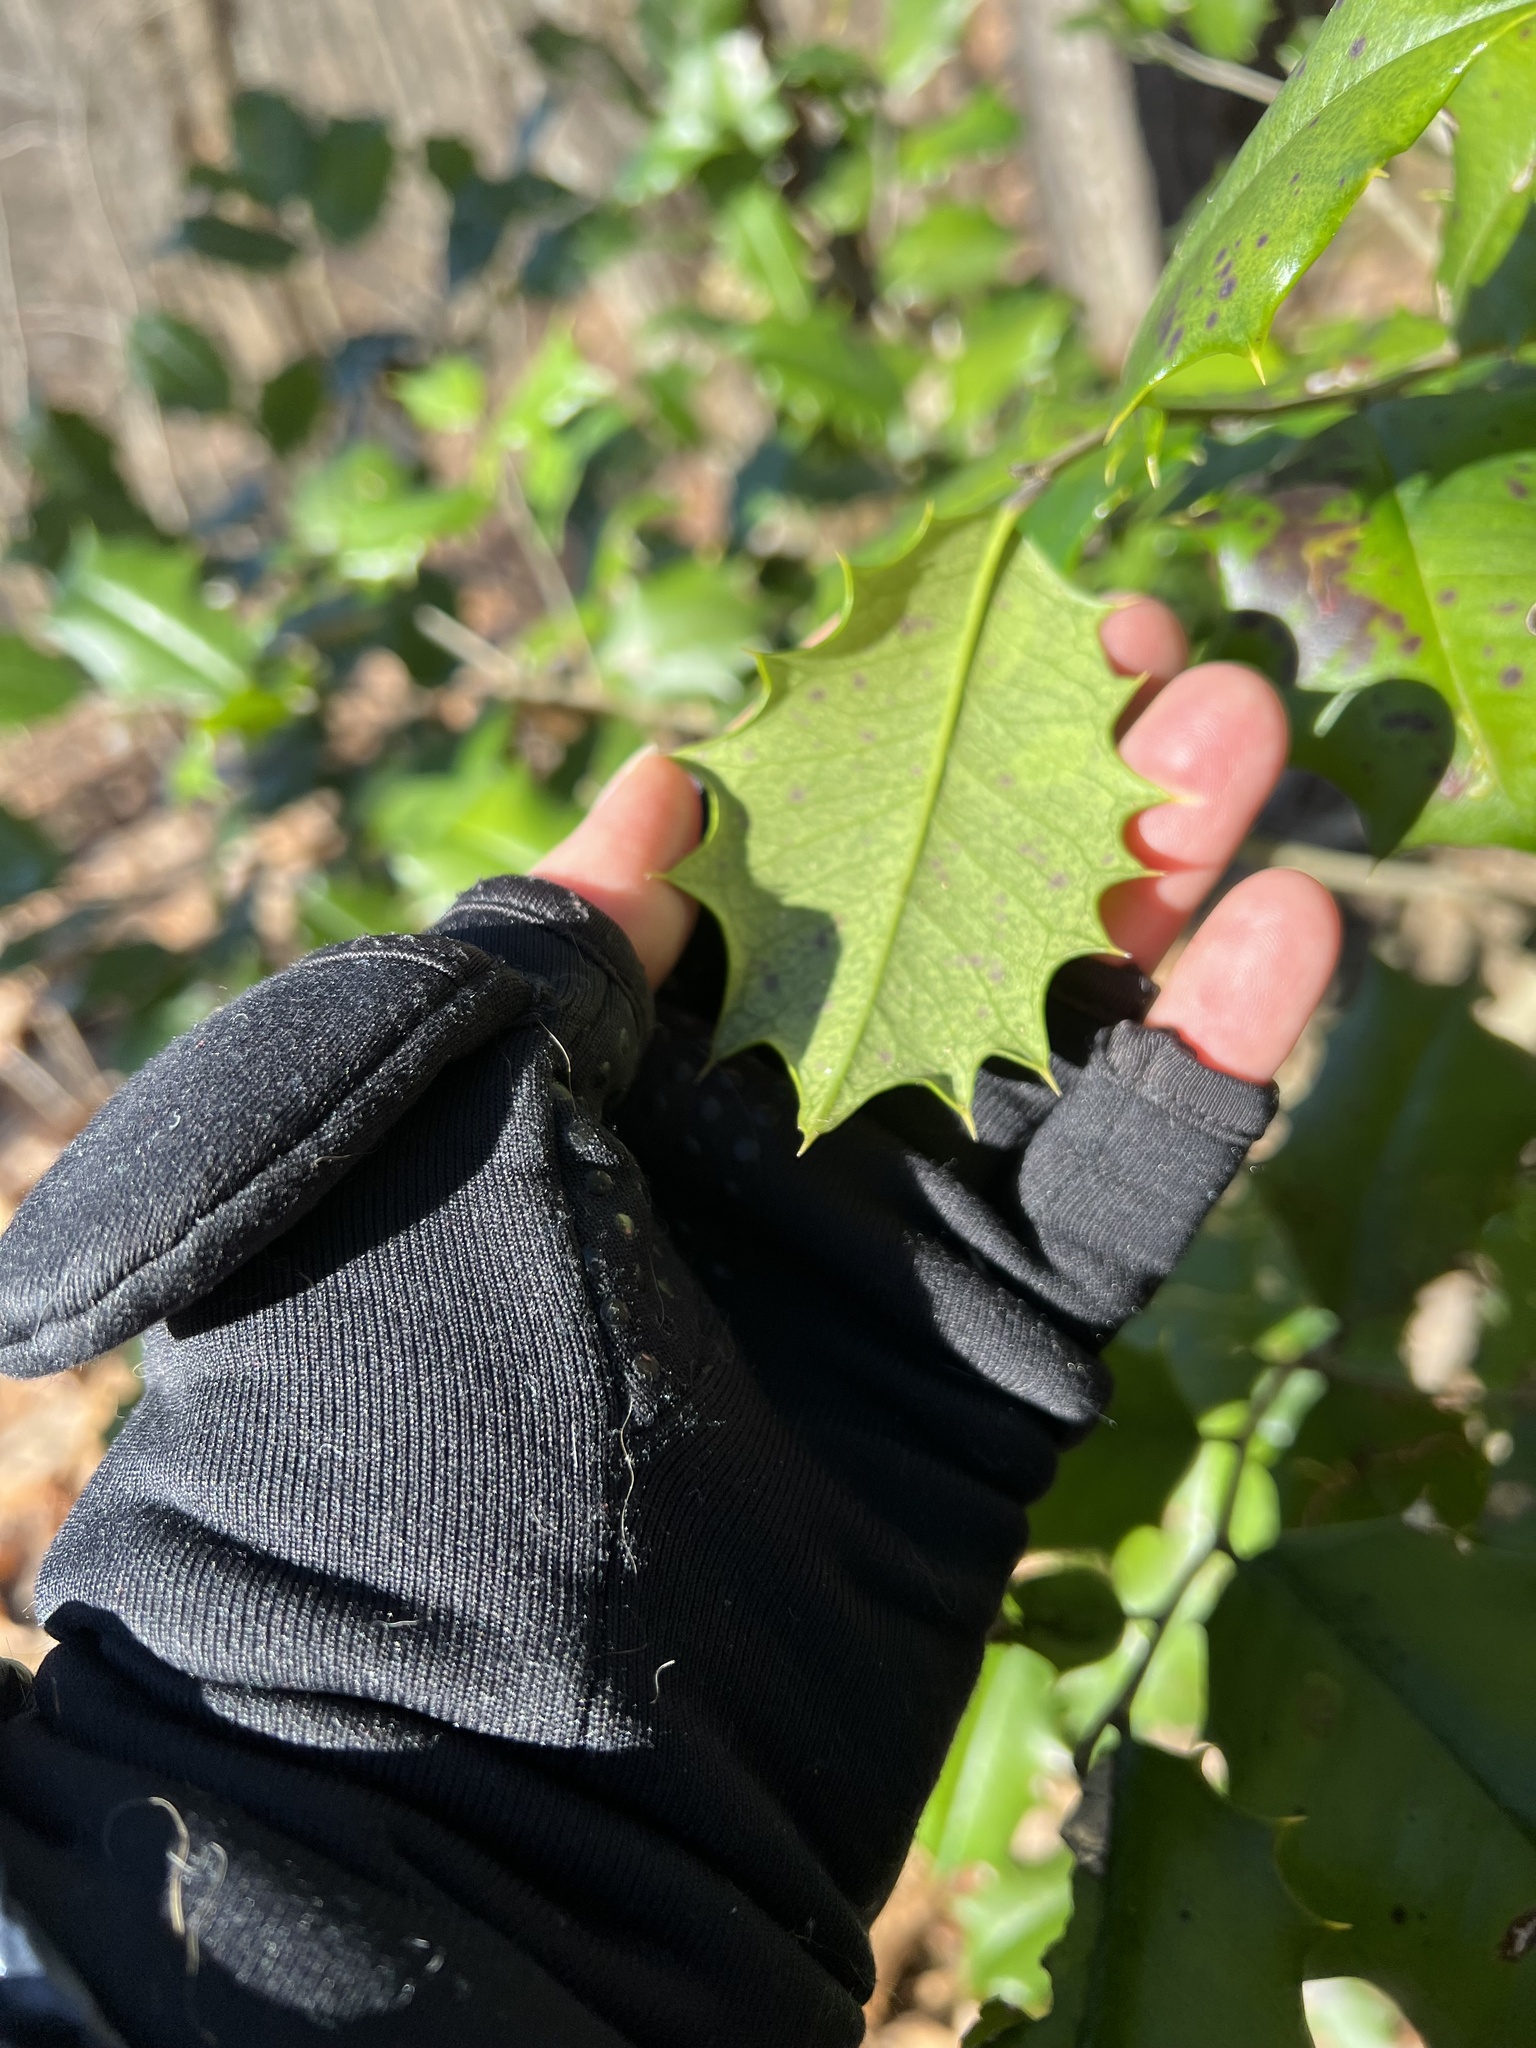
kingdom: Plantae
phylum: Tracheophyta
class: Magnoliopsida
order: Aquifoliales
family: Aquifoliaceae
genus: Ilex
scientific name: Ilex opaca
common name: American holly
